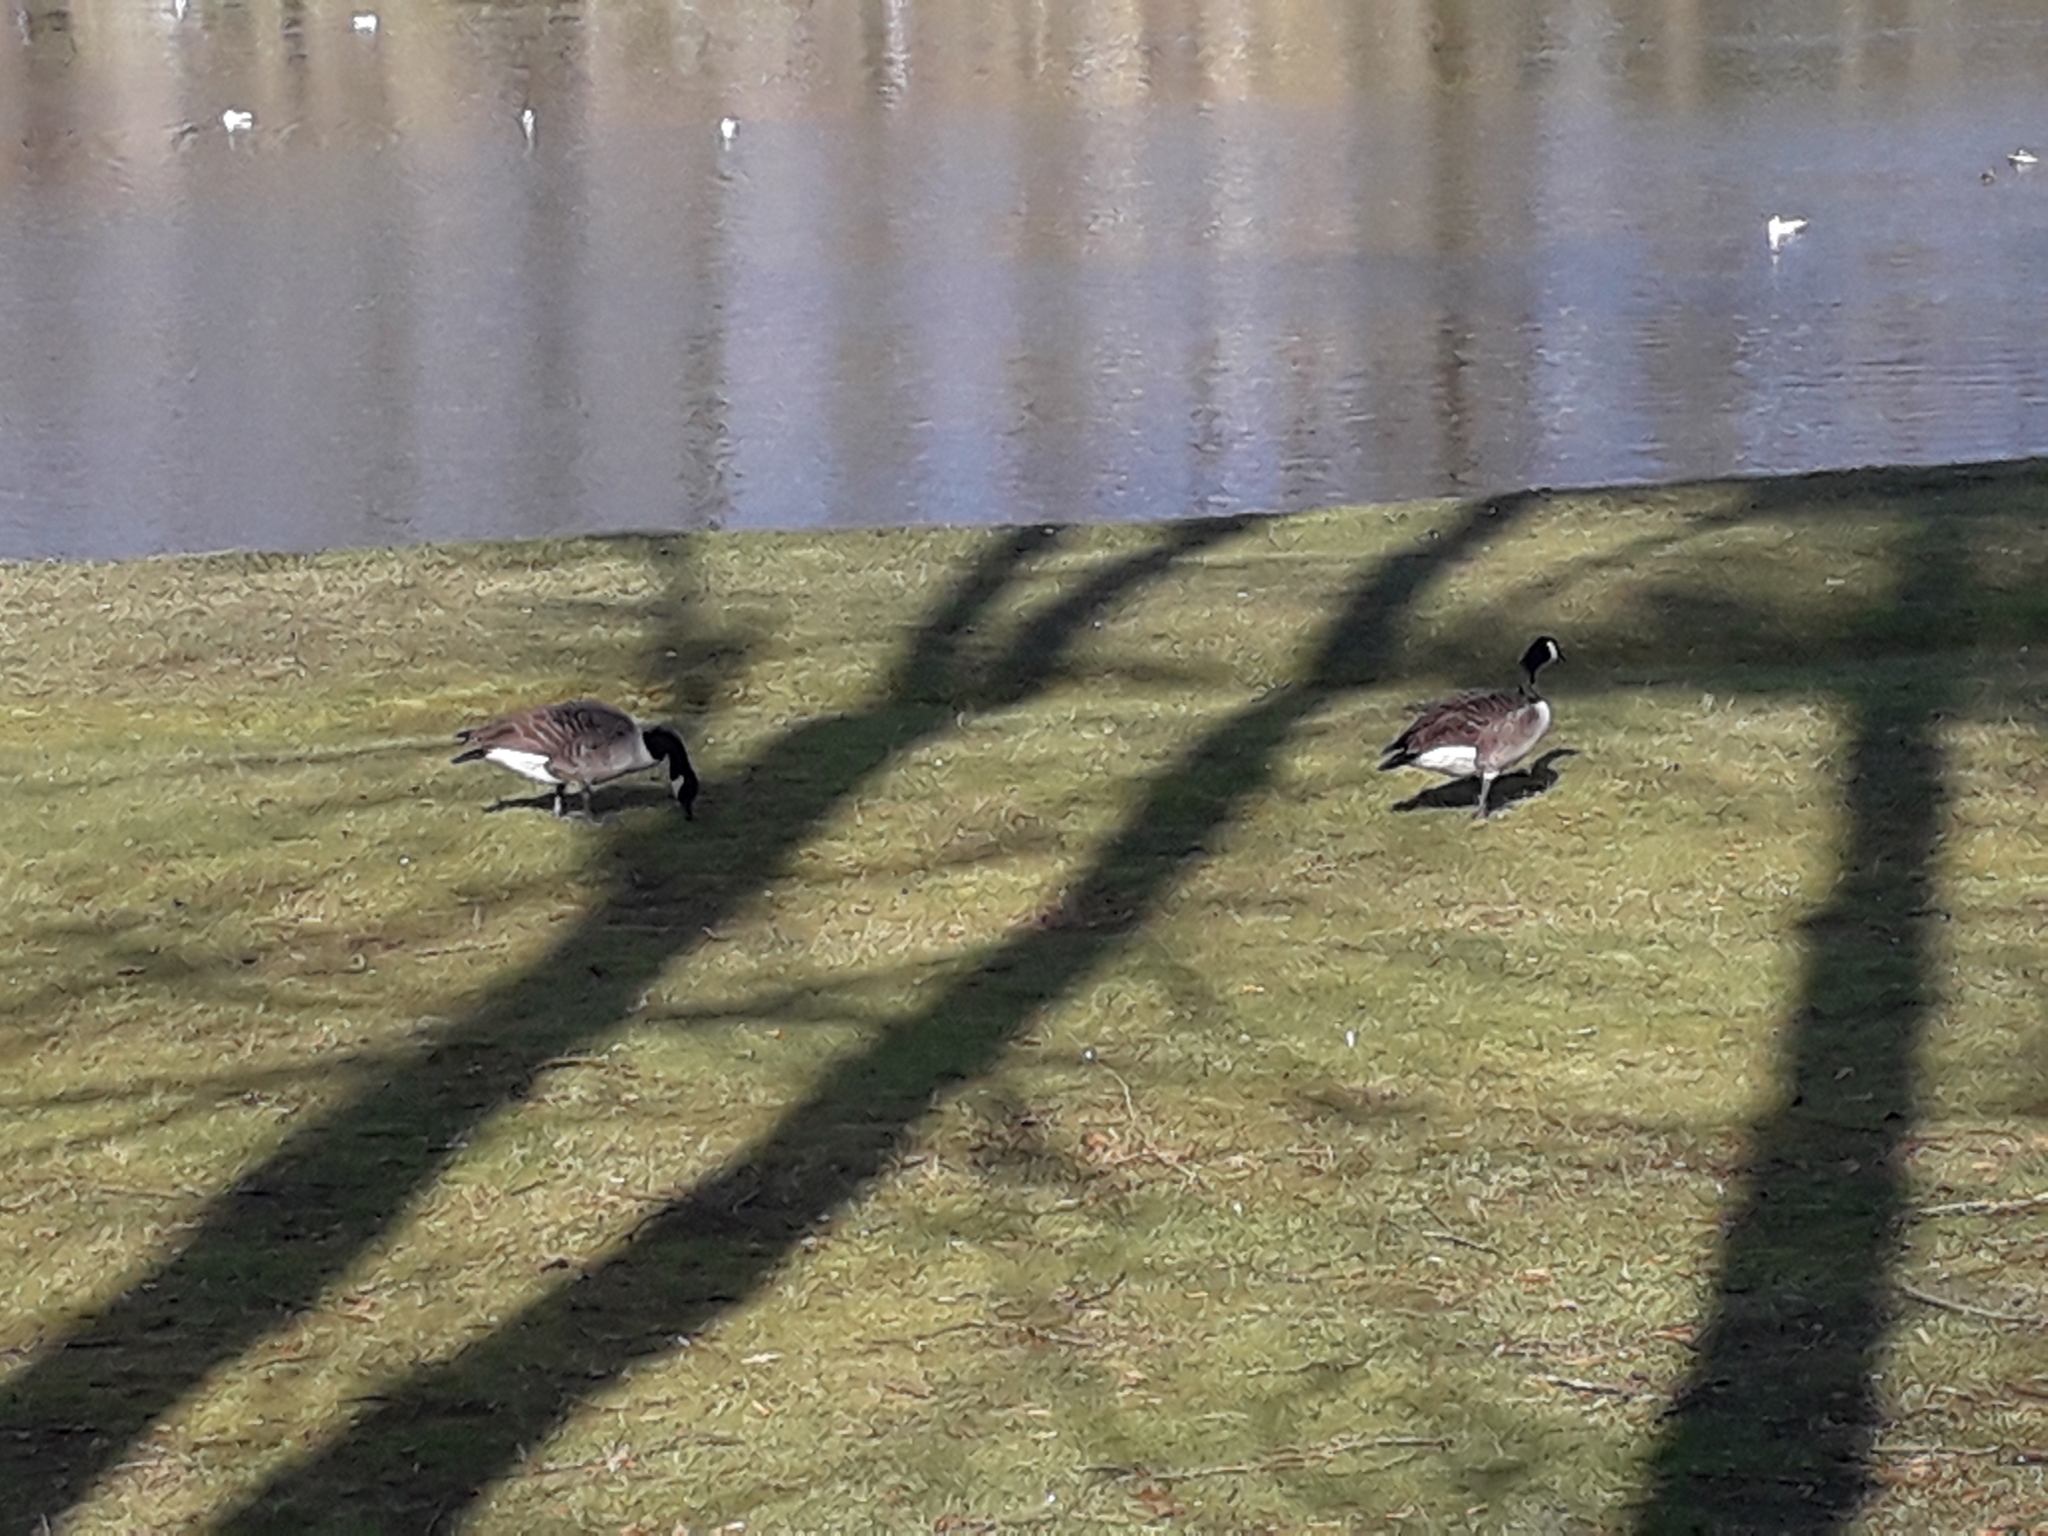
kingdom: Animalia
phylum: Chordata
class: Aves
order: Anseriformes
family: Anatidae
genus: Branta
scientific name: Branta canadensis
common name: Canada goose
